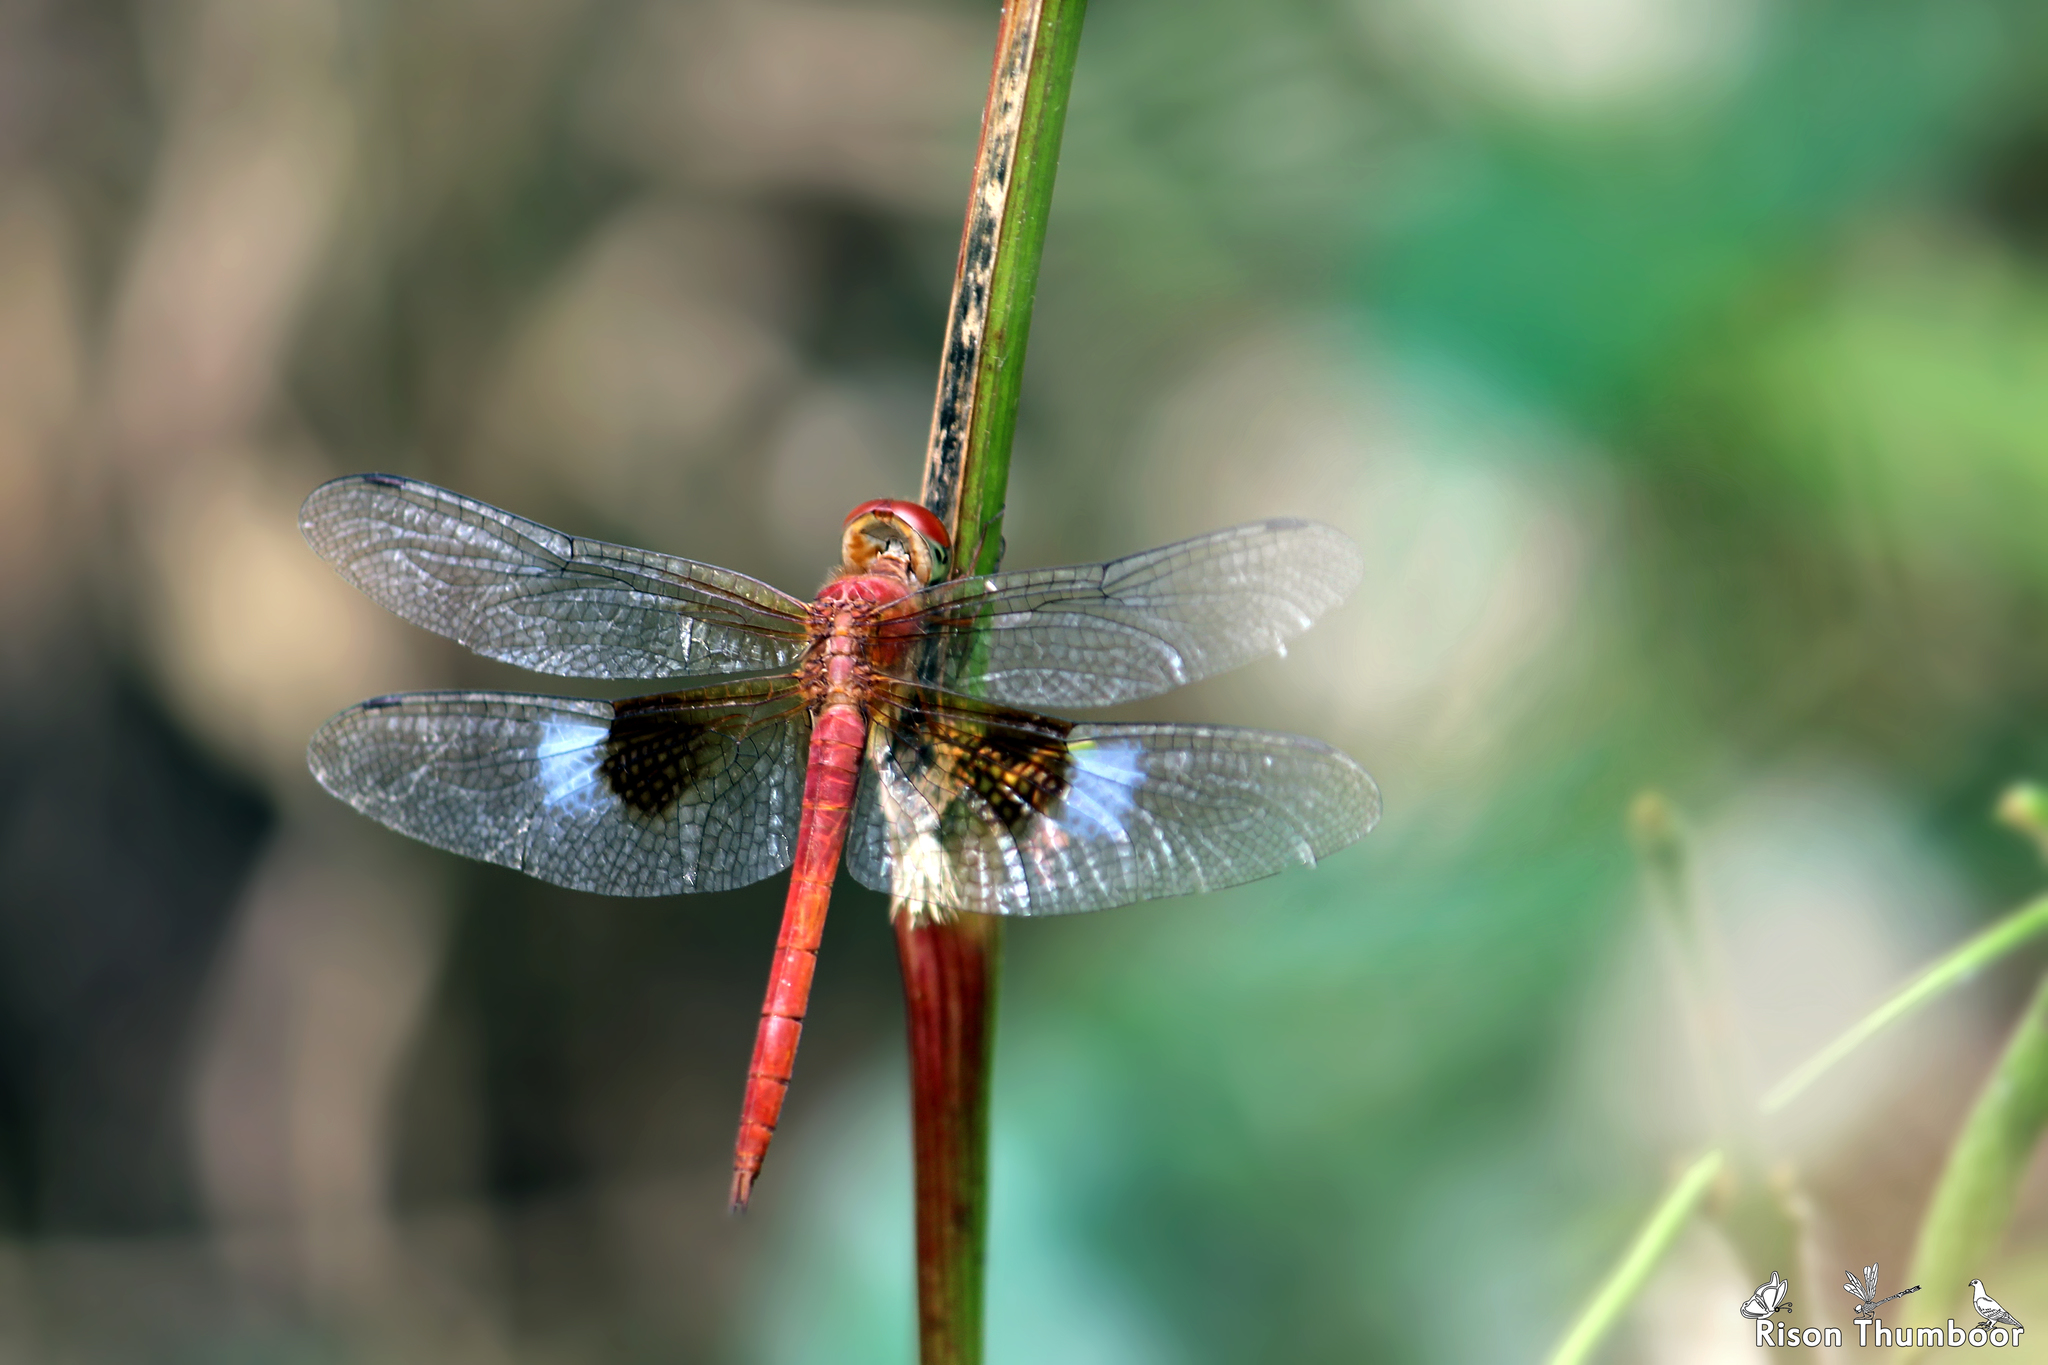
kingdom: Animalia
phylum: Arthropoda
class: Insecta
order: Odonata
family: Libellulidae
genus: Tholymis
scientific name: Tholymis tillarga
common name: Coral-tailed cloud wing
